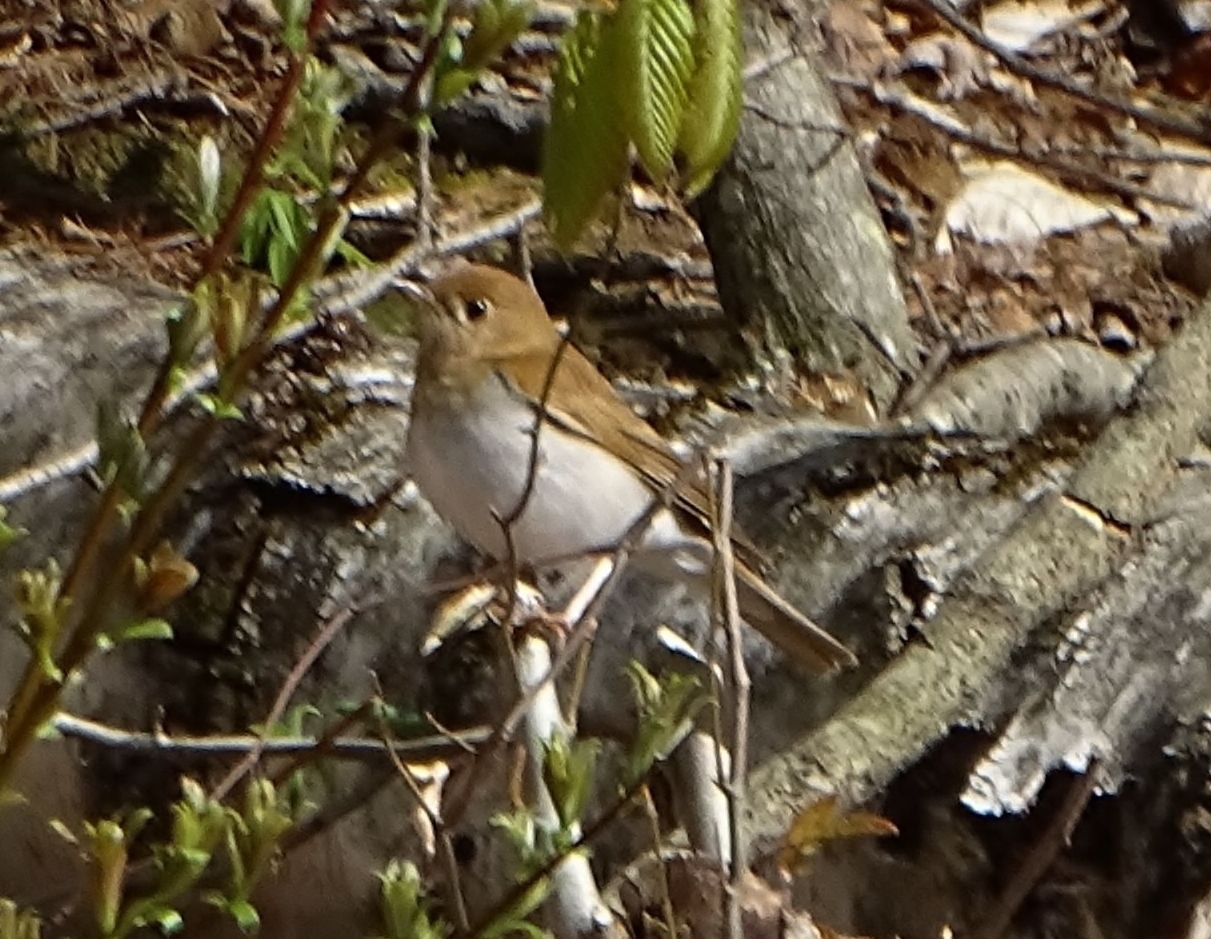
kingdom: Animalia
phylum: Chordata
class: Aves
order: Passeriformes
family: Turdidae
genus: Catharus
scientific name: Catharus fuscescens
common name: Veery
